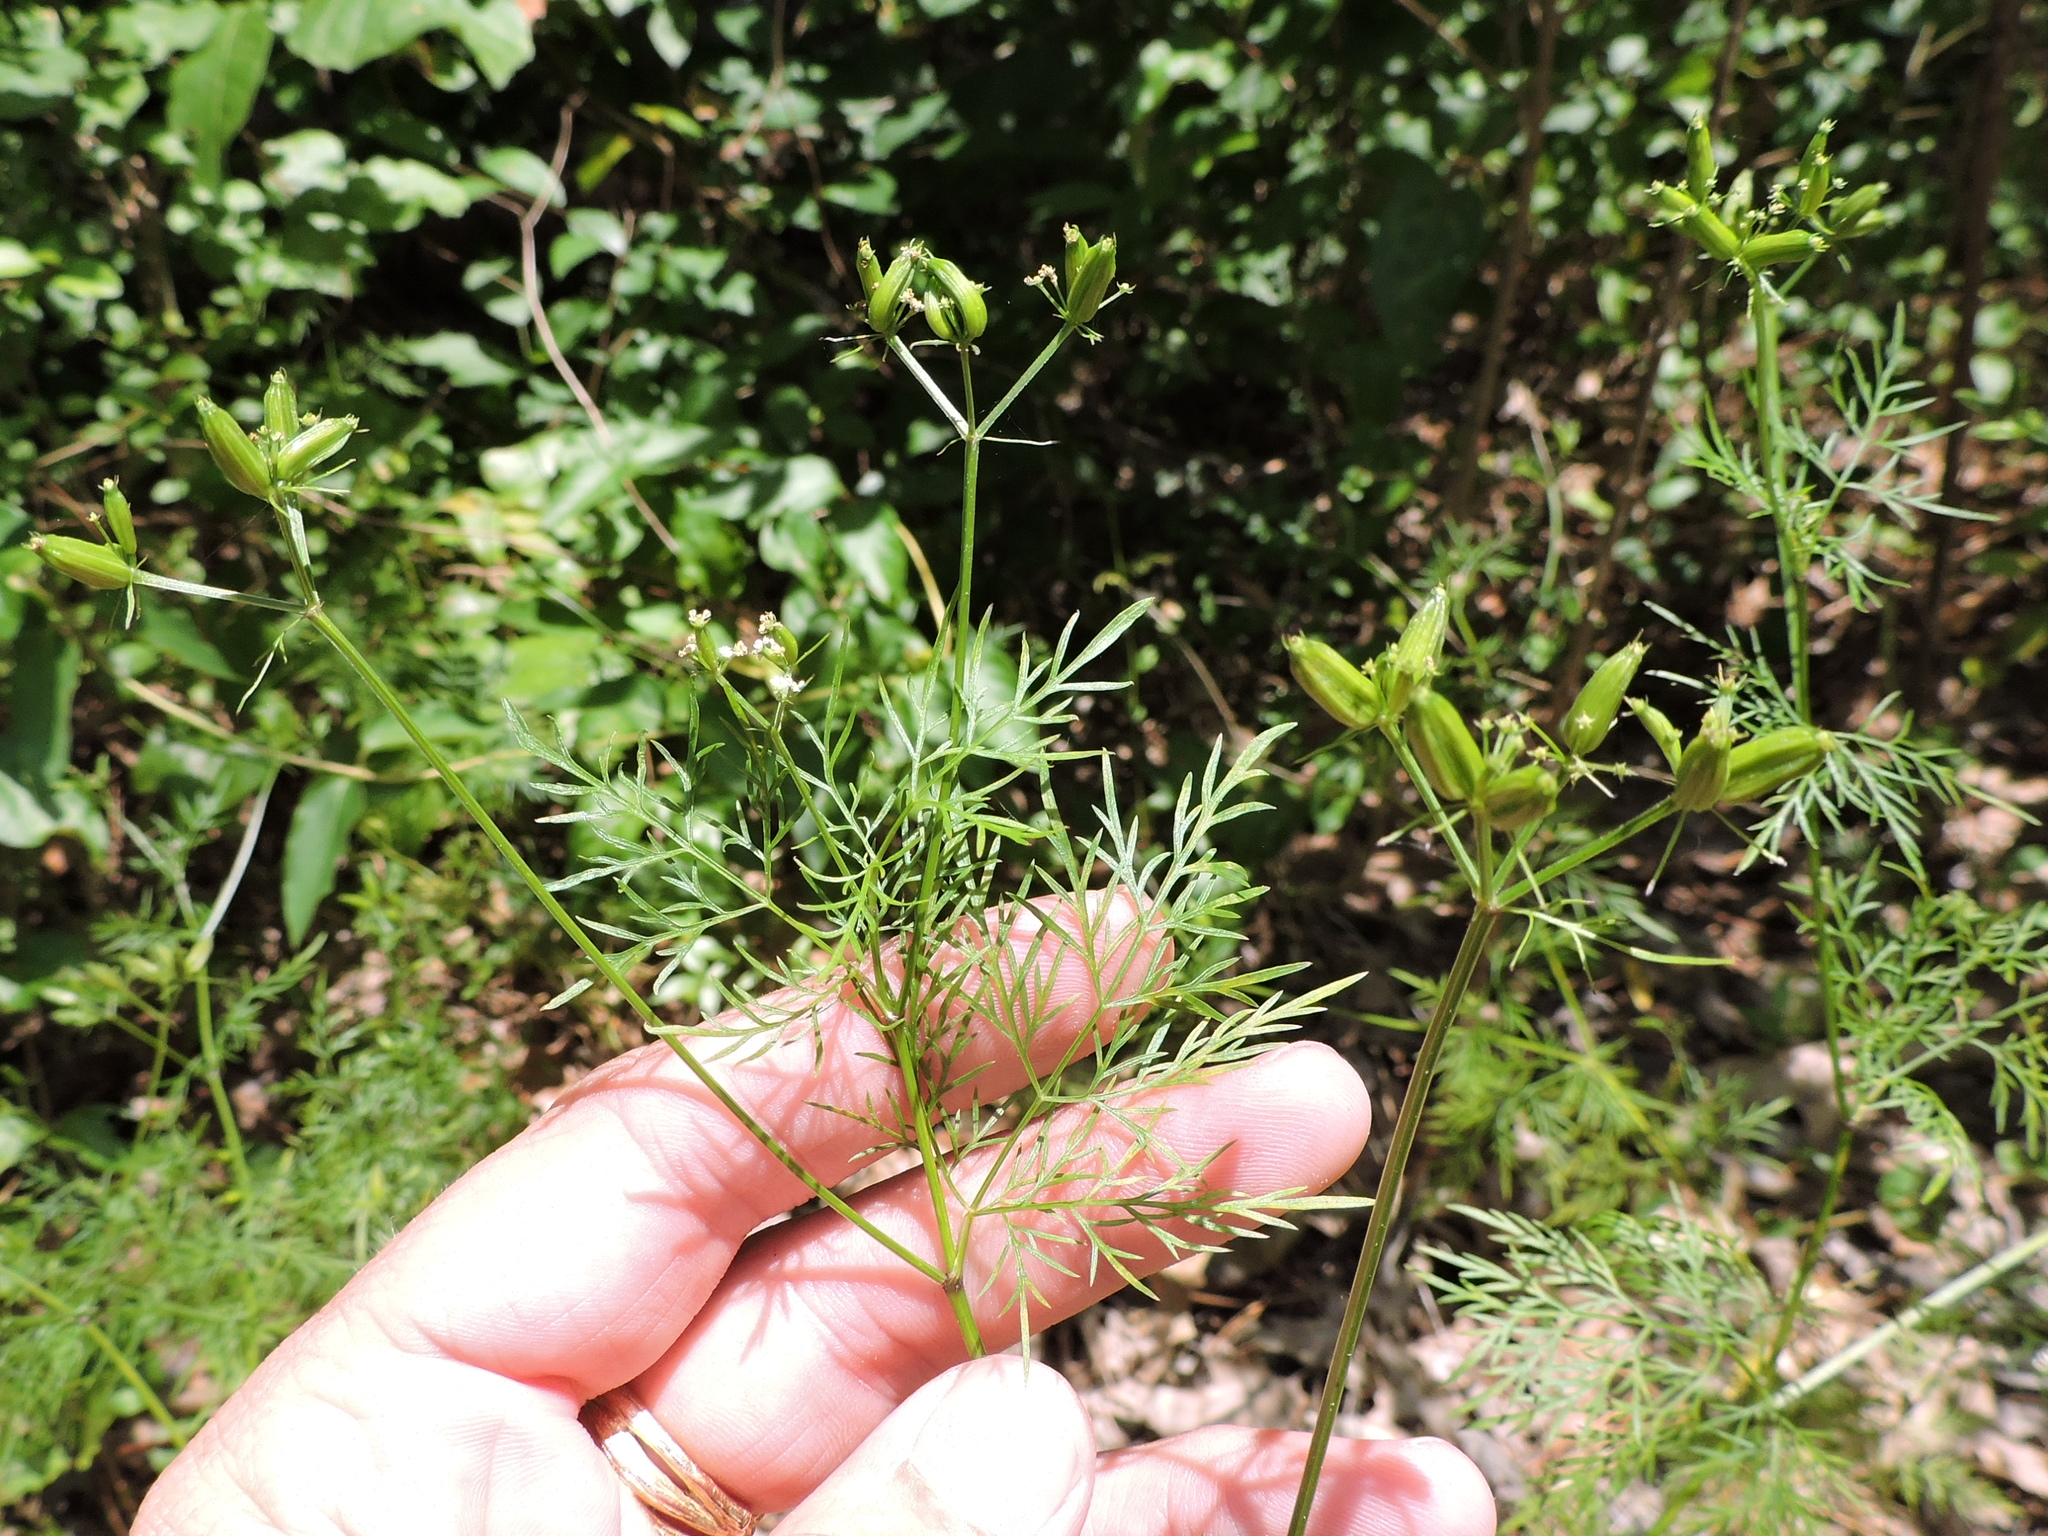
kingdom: Plantae
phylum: Tracheophyta
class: Magnoliopsida
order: Apiales
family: Apiaceae
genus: Trepocarpus
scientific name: Trepocarpus aethusae
